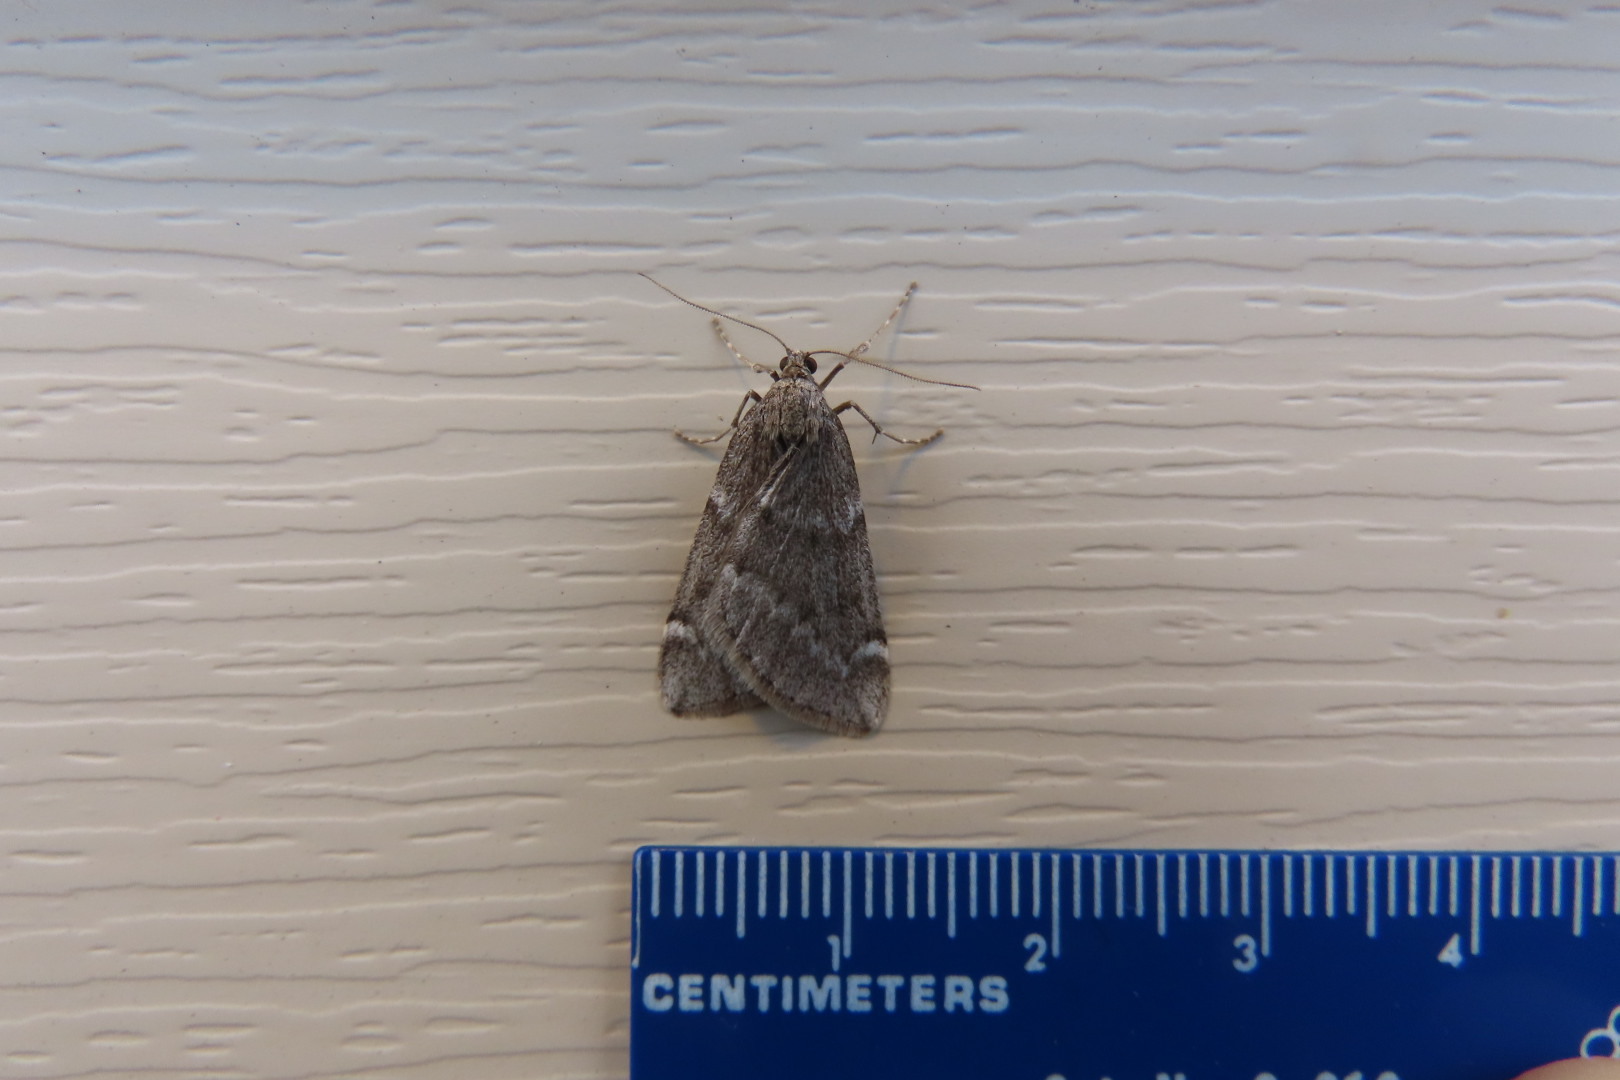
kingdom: Animalia
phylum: Arthropoda
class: Insecta
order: Lepidoptera
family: Geometridae
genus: Alsophila
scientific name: Alsophila pometaria
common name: Fall cankerworm
